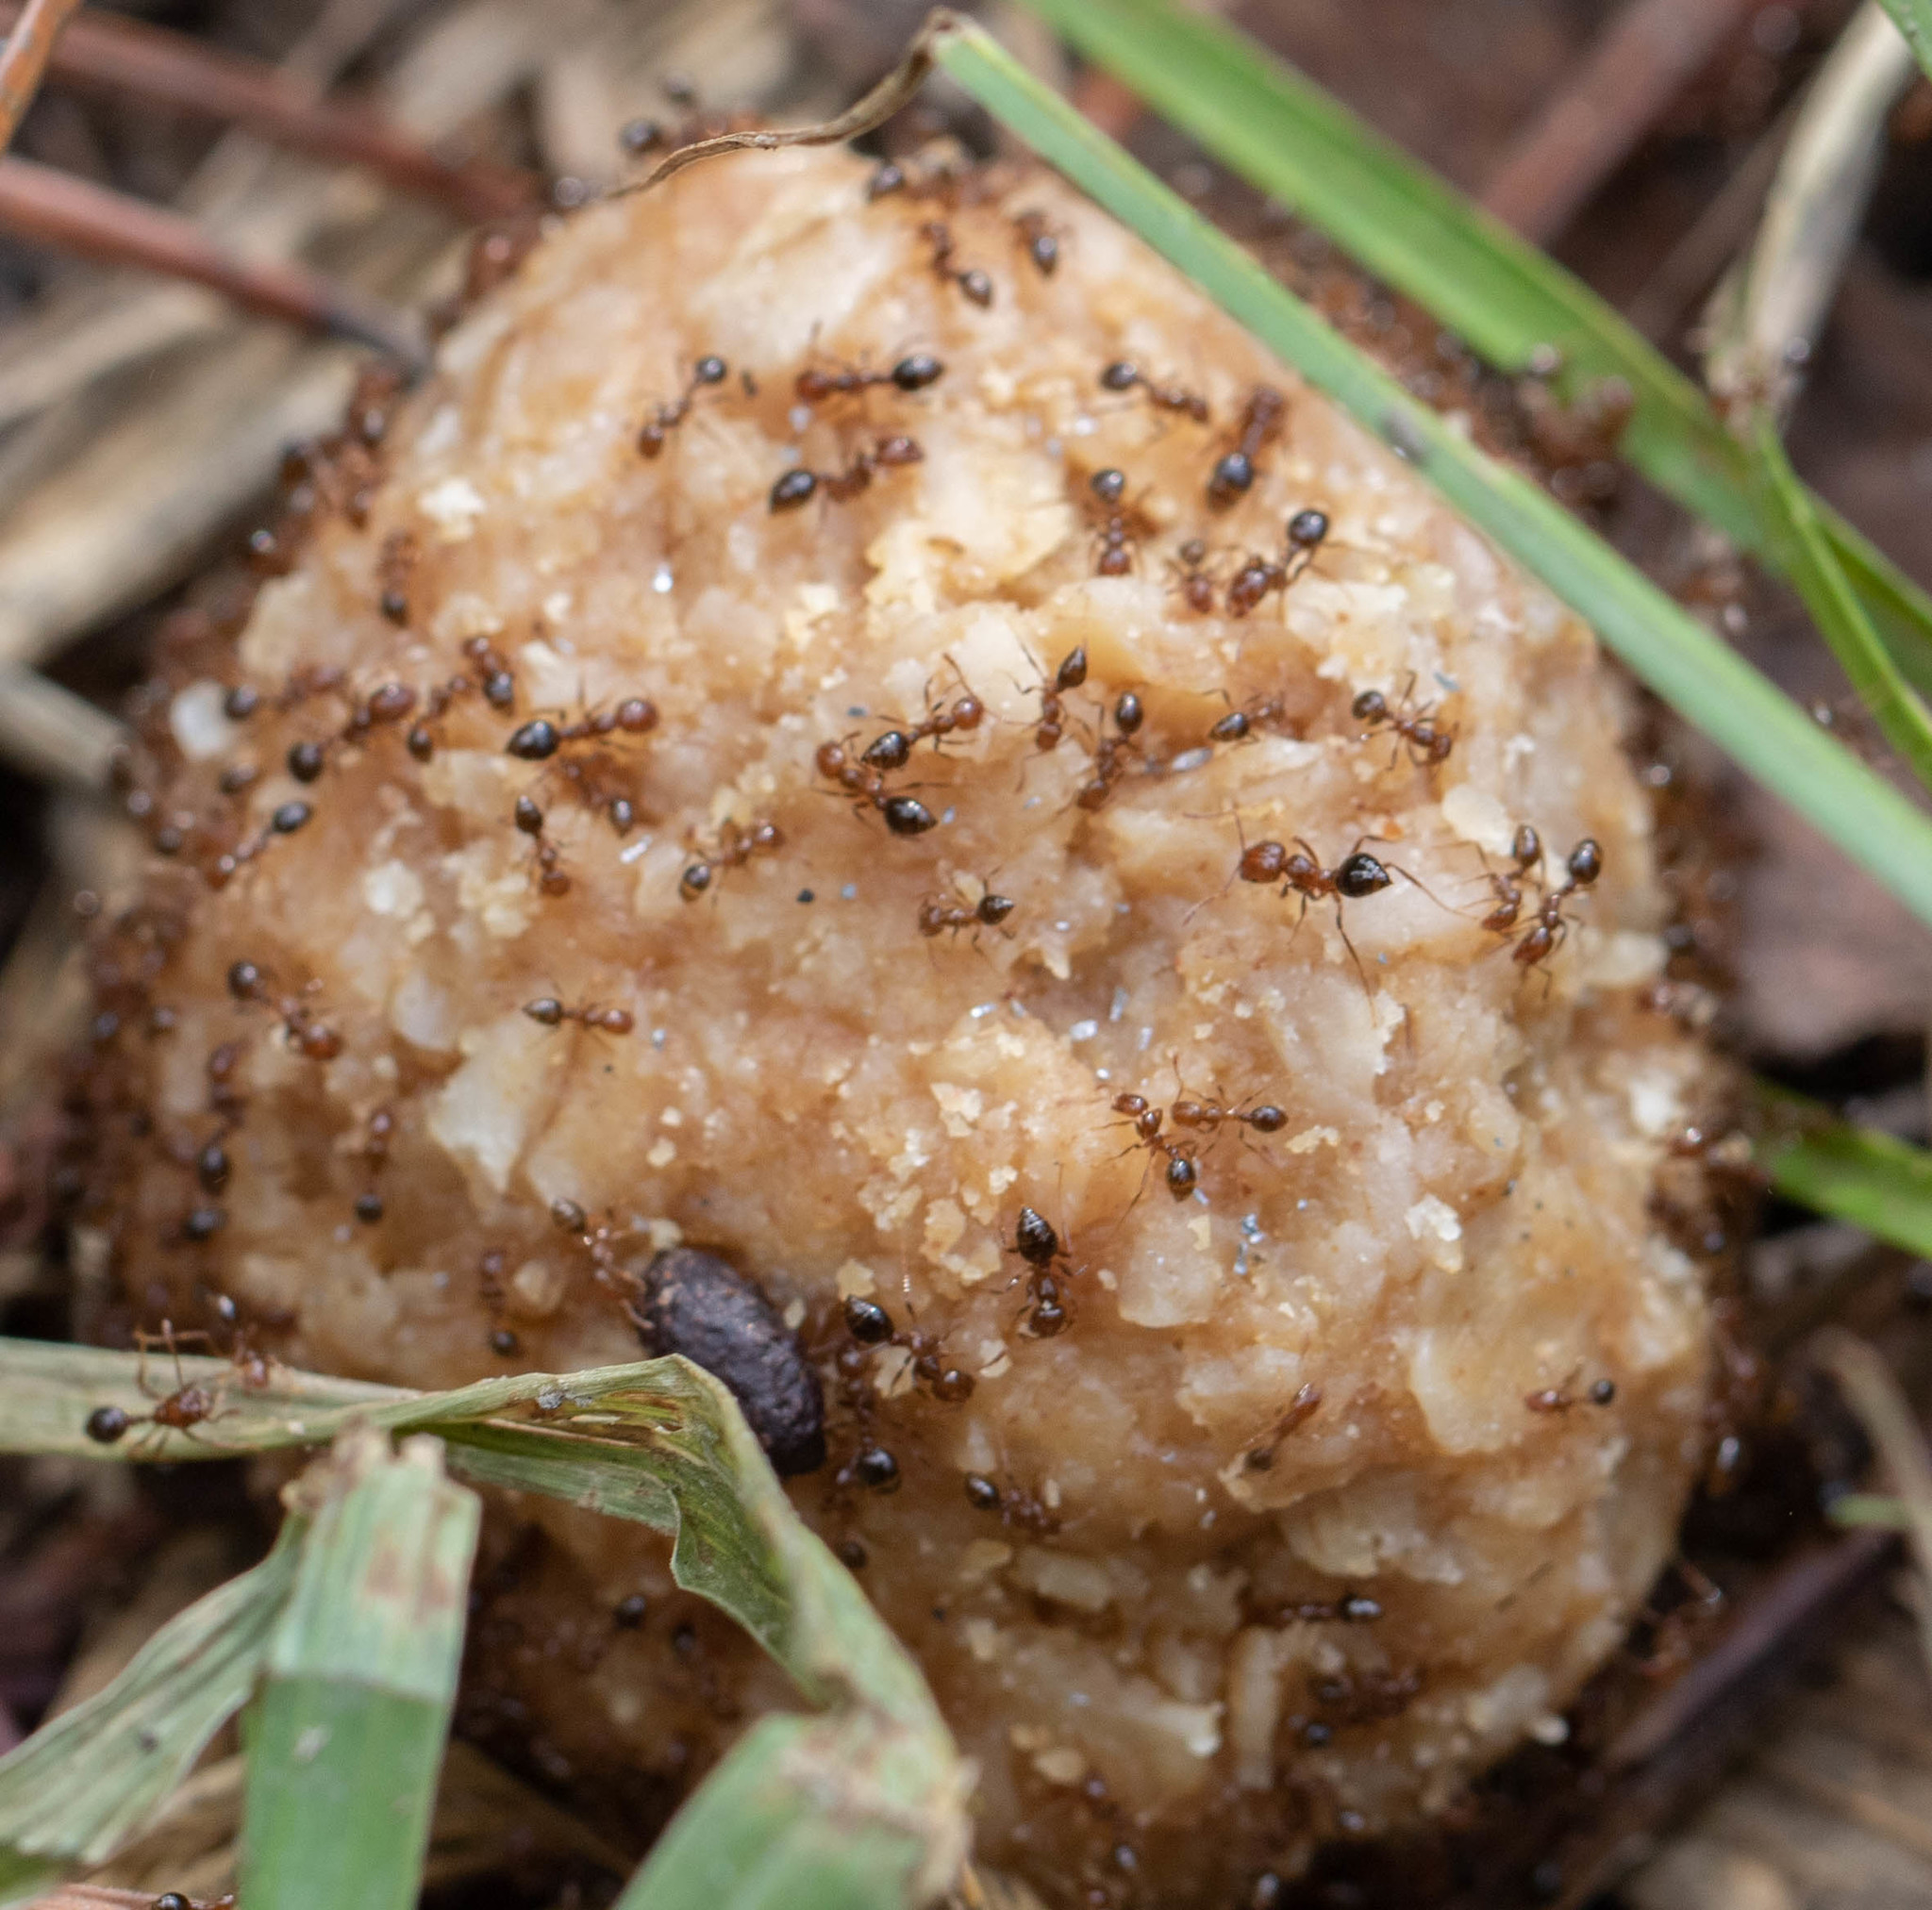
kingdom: Animalia
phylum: Arthropoda
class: Insecta
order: Hymenoptera
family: Formicidae
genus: Solenopsis
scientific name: Solenopsis invicta
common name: Red imported fire ant
